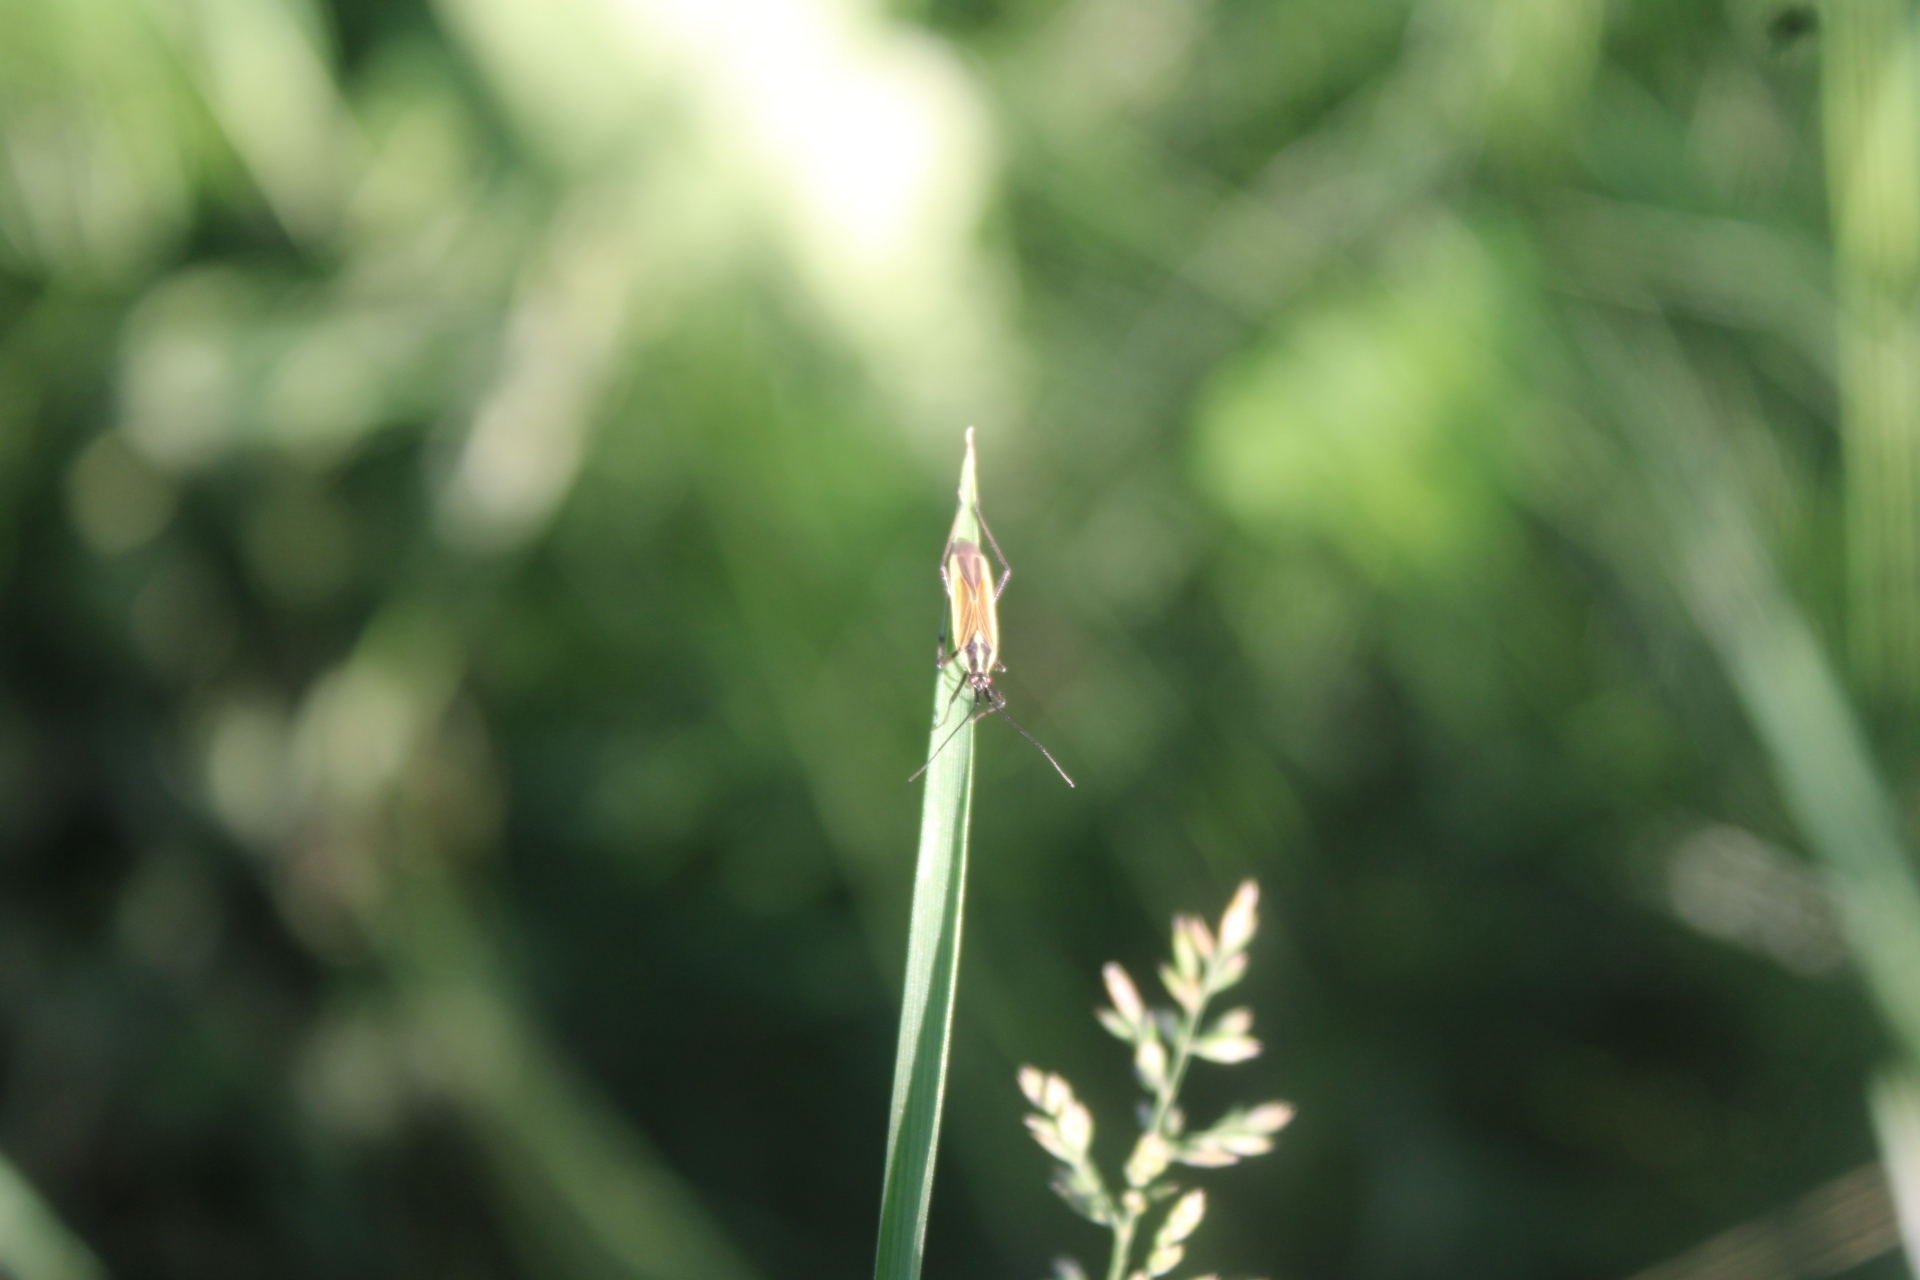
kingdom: Animalia
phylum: Arthropoda
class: Insecta
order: Hemiptera
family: Miridae
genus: Leptopterna
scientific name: Leptopterna dolabrata
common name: Meadow plant bug
